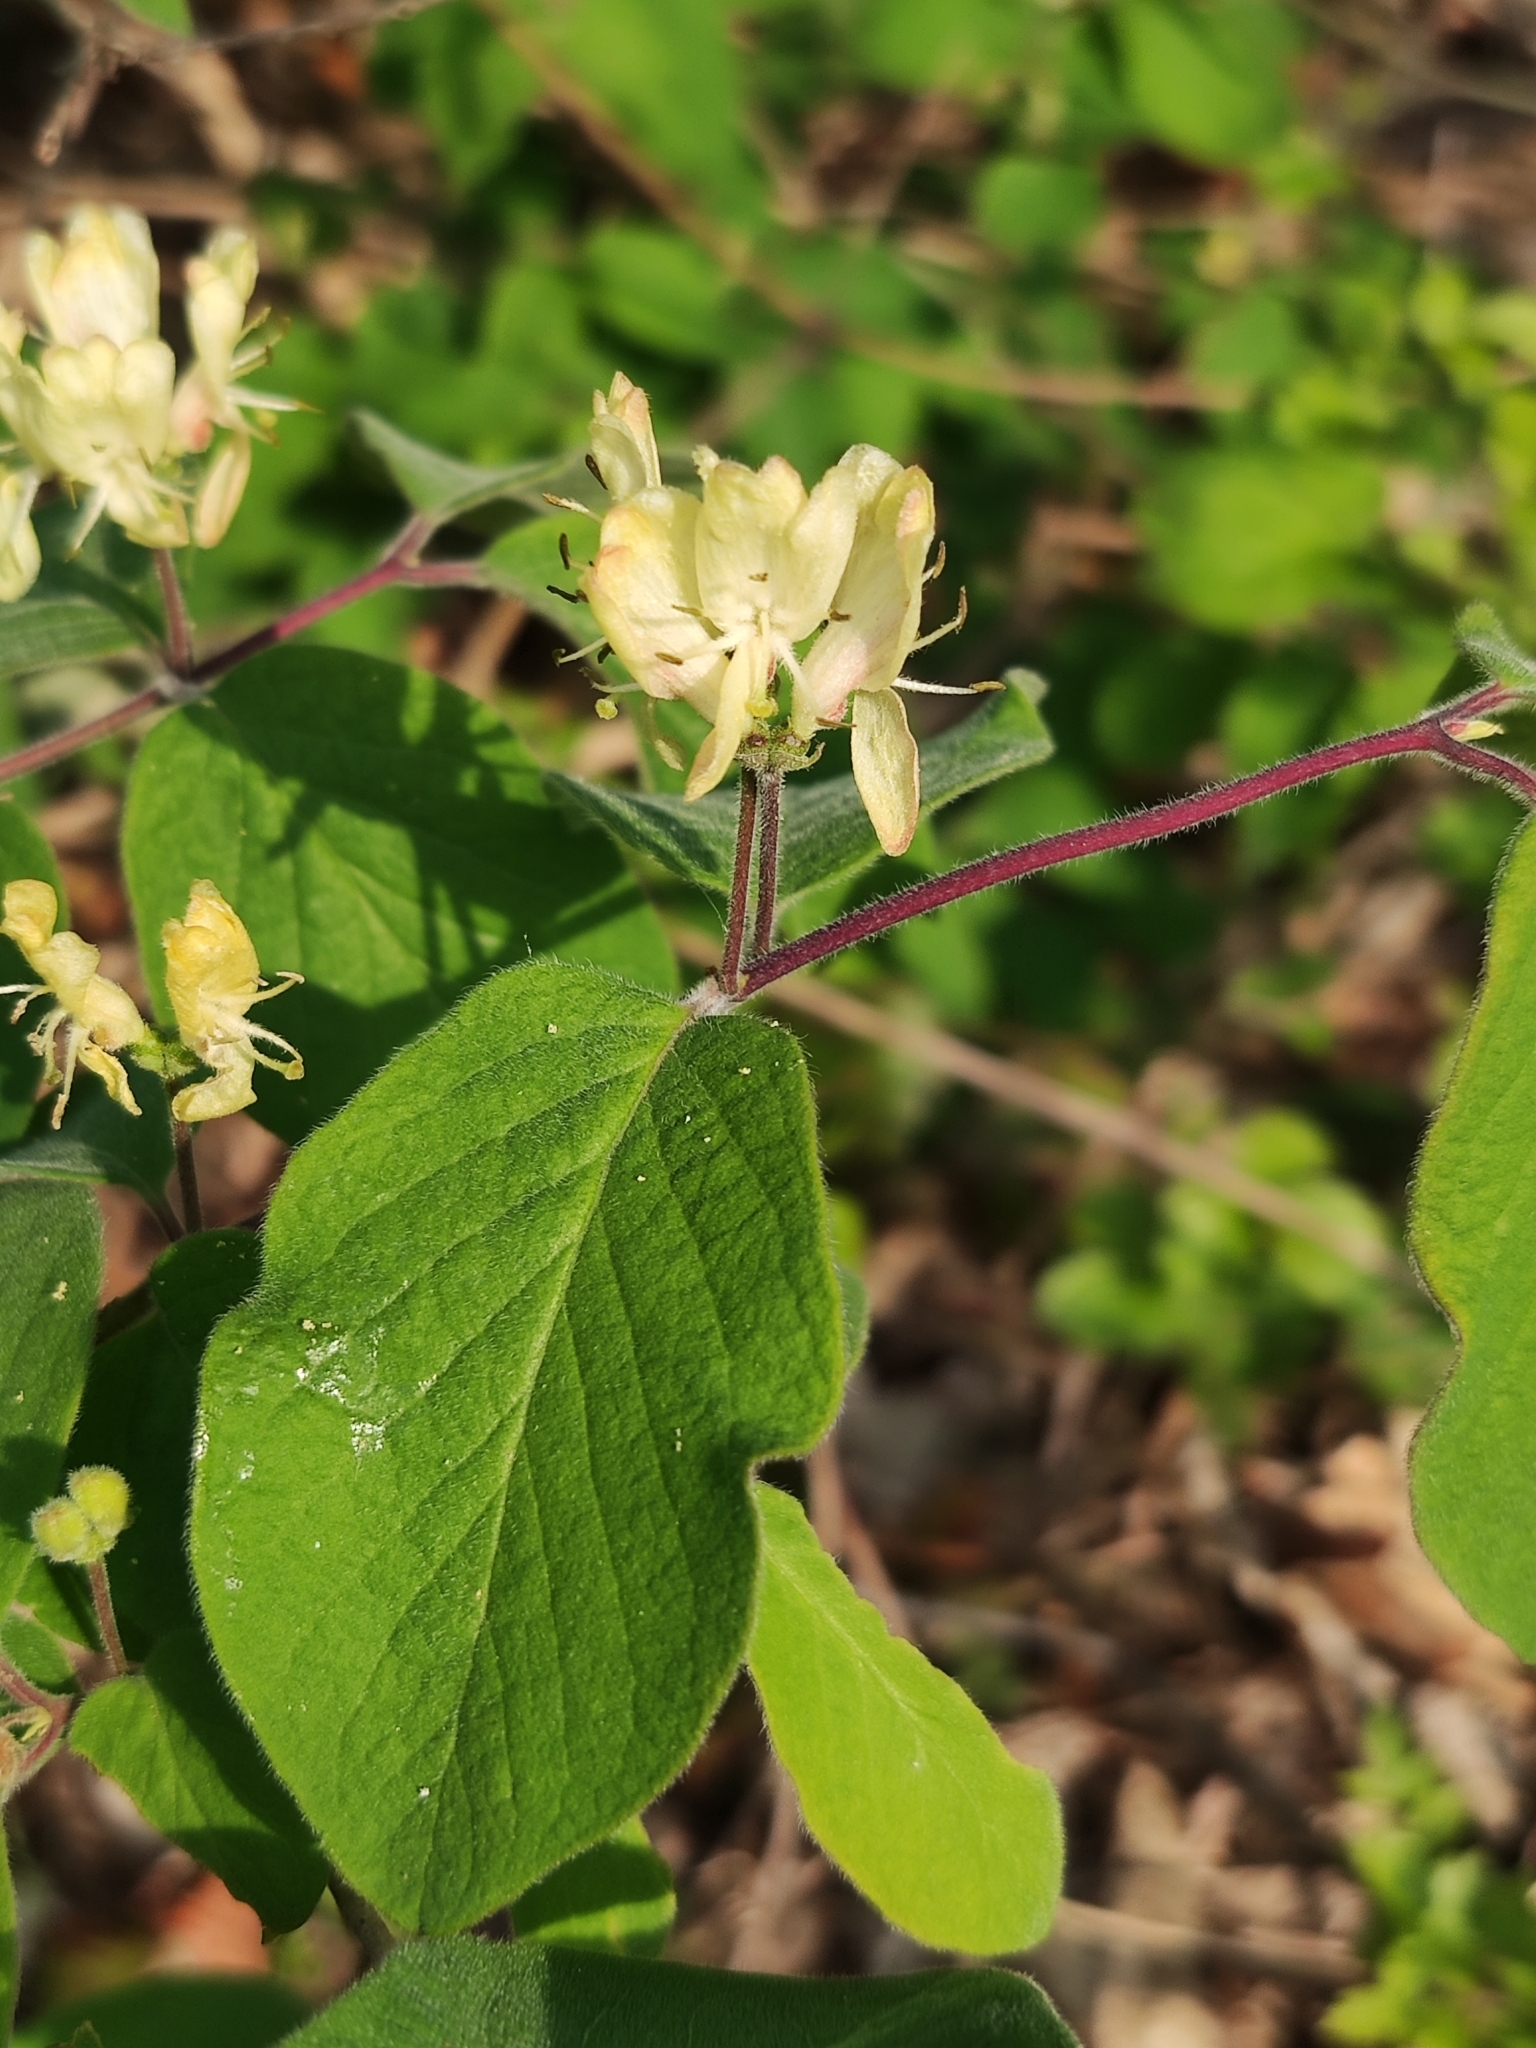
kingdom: Plantae
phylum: Tracheophyta
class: Magnoliopsida
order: Dipsacales
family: Caprifoliaceae
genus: Lonicera
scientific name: Lonicera xylosteum
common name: Fly honeysuckle
